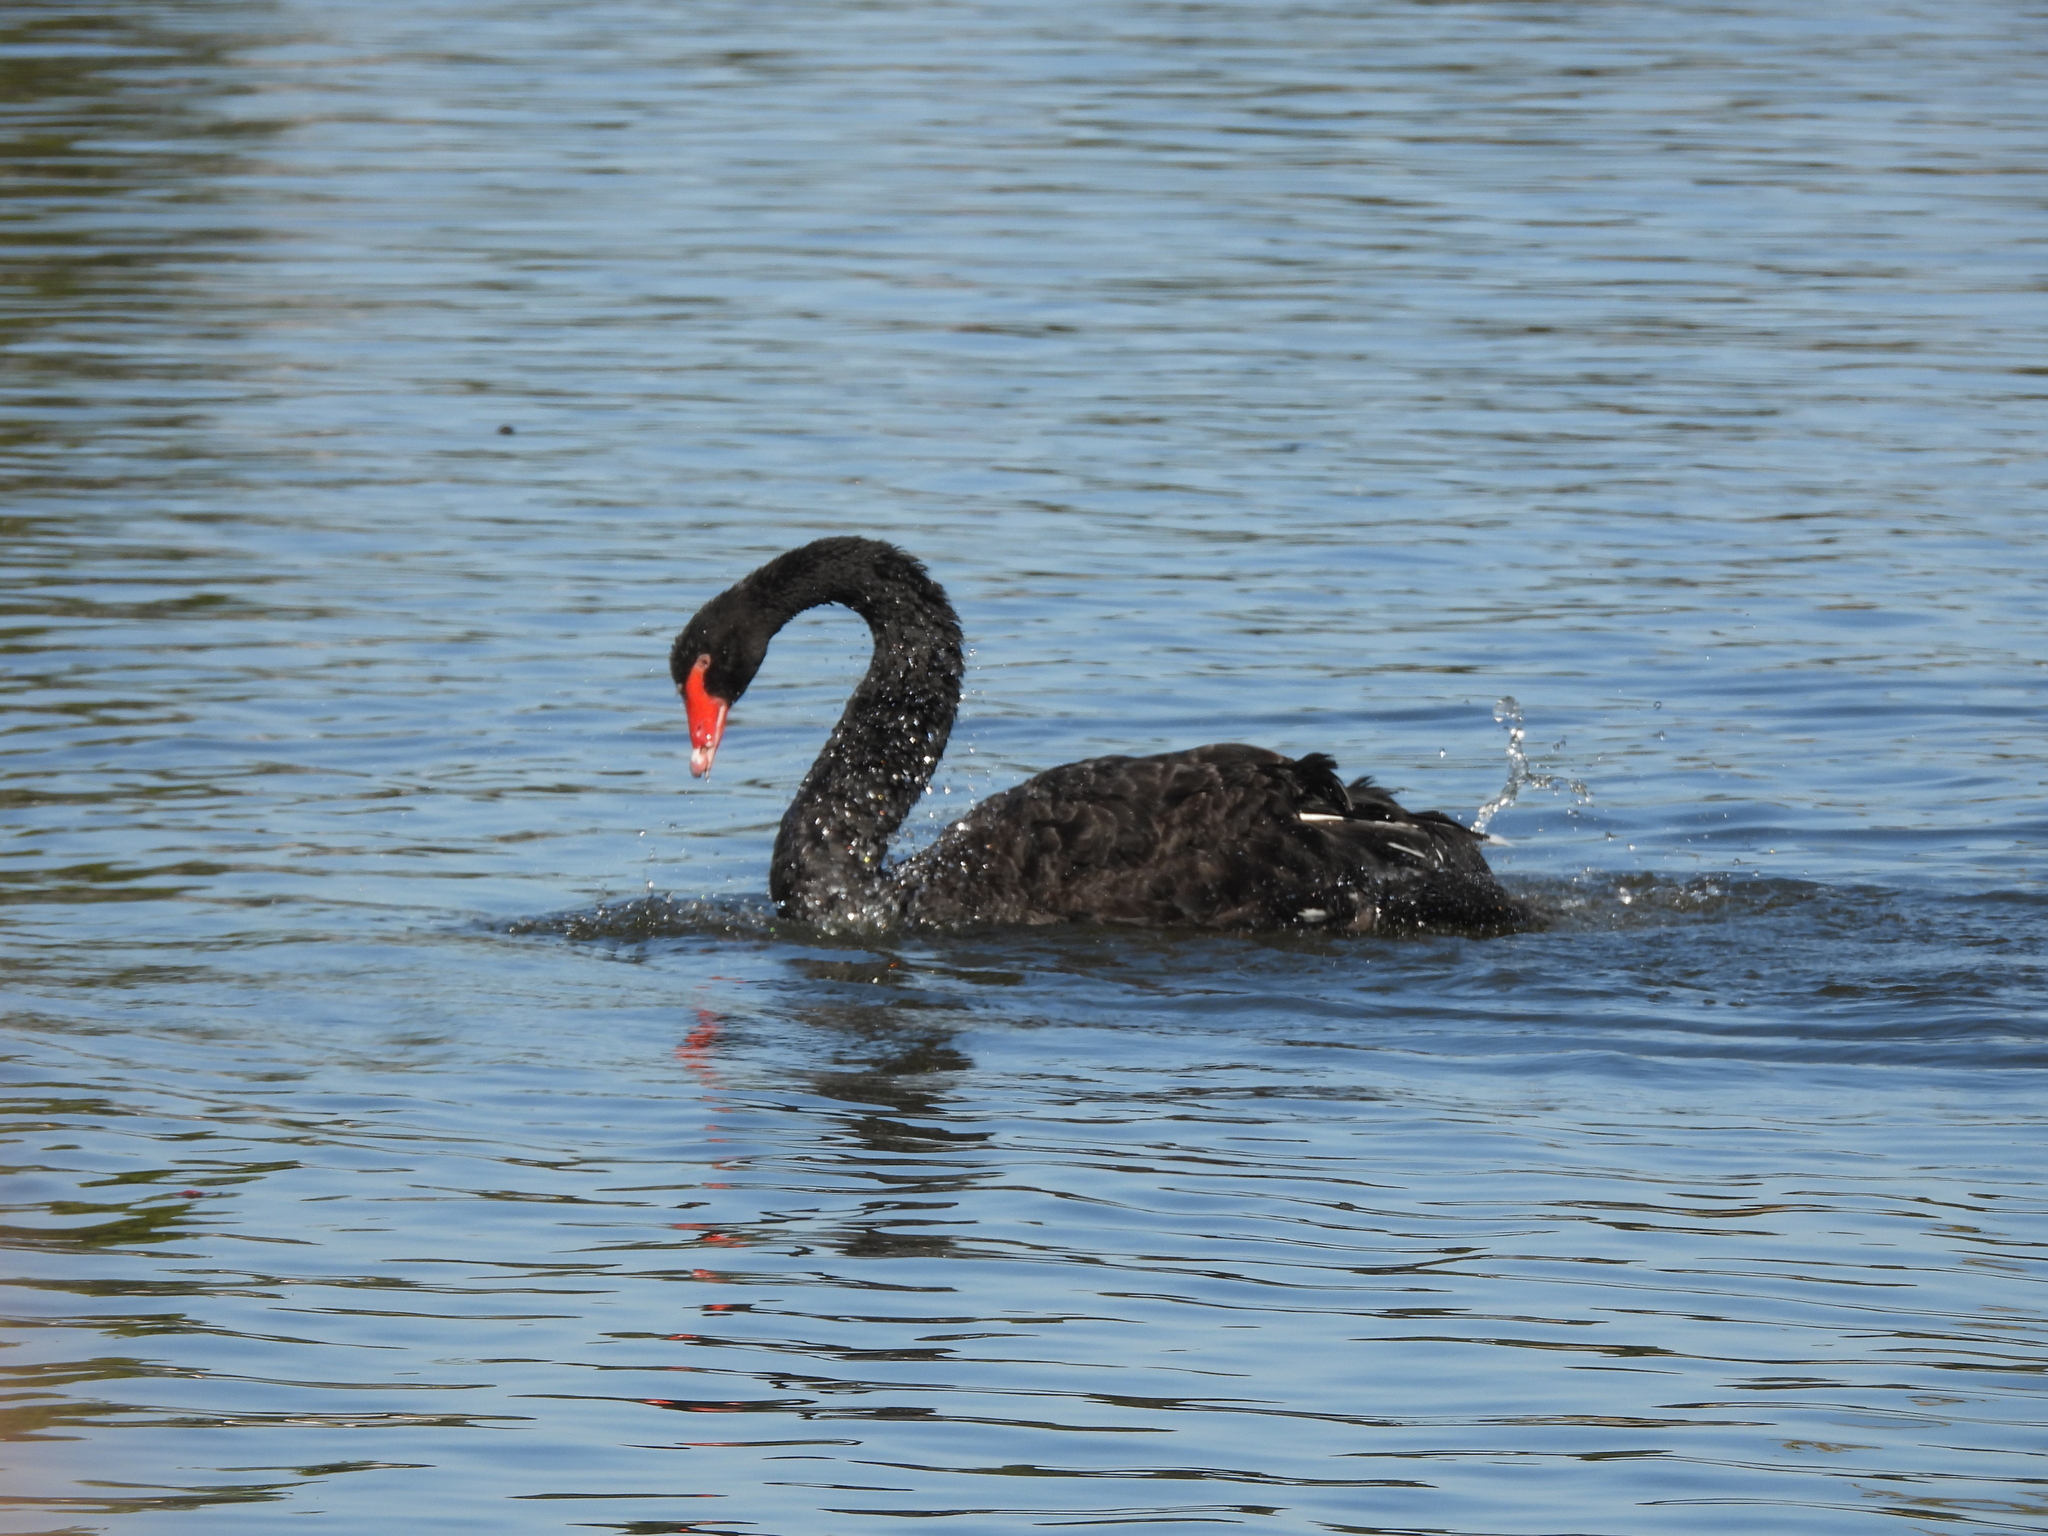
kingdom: Animalia
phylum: Chordata
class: Aves
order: Anseriformes
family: Anatidae
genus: Cygnus
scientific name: Cygnus atratus
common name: Black swan
